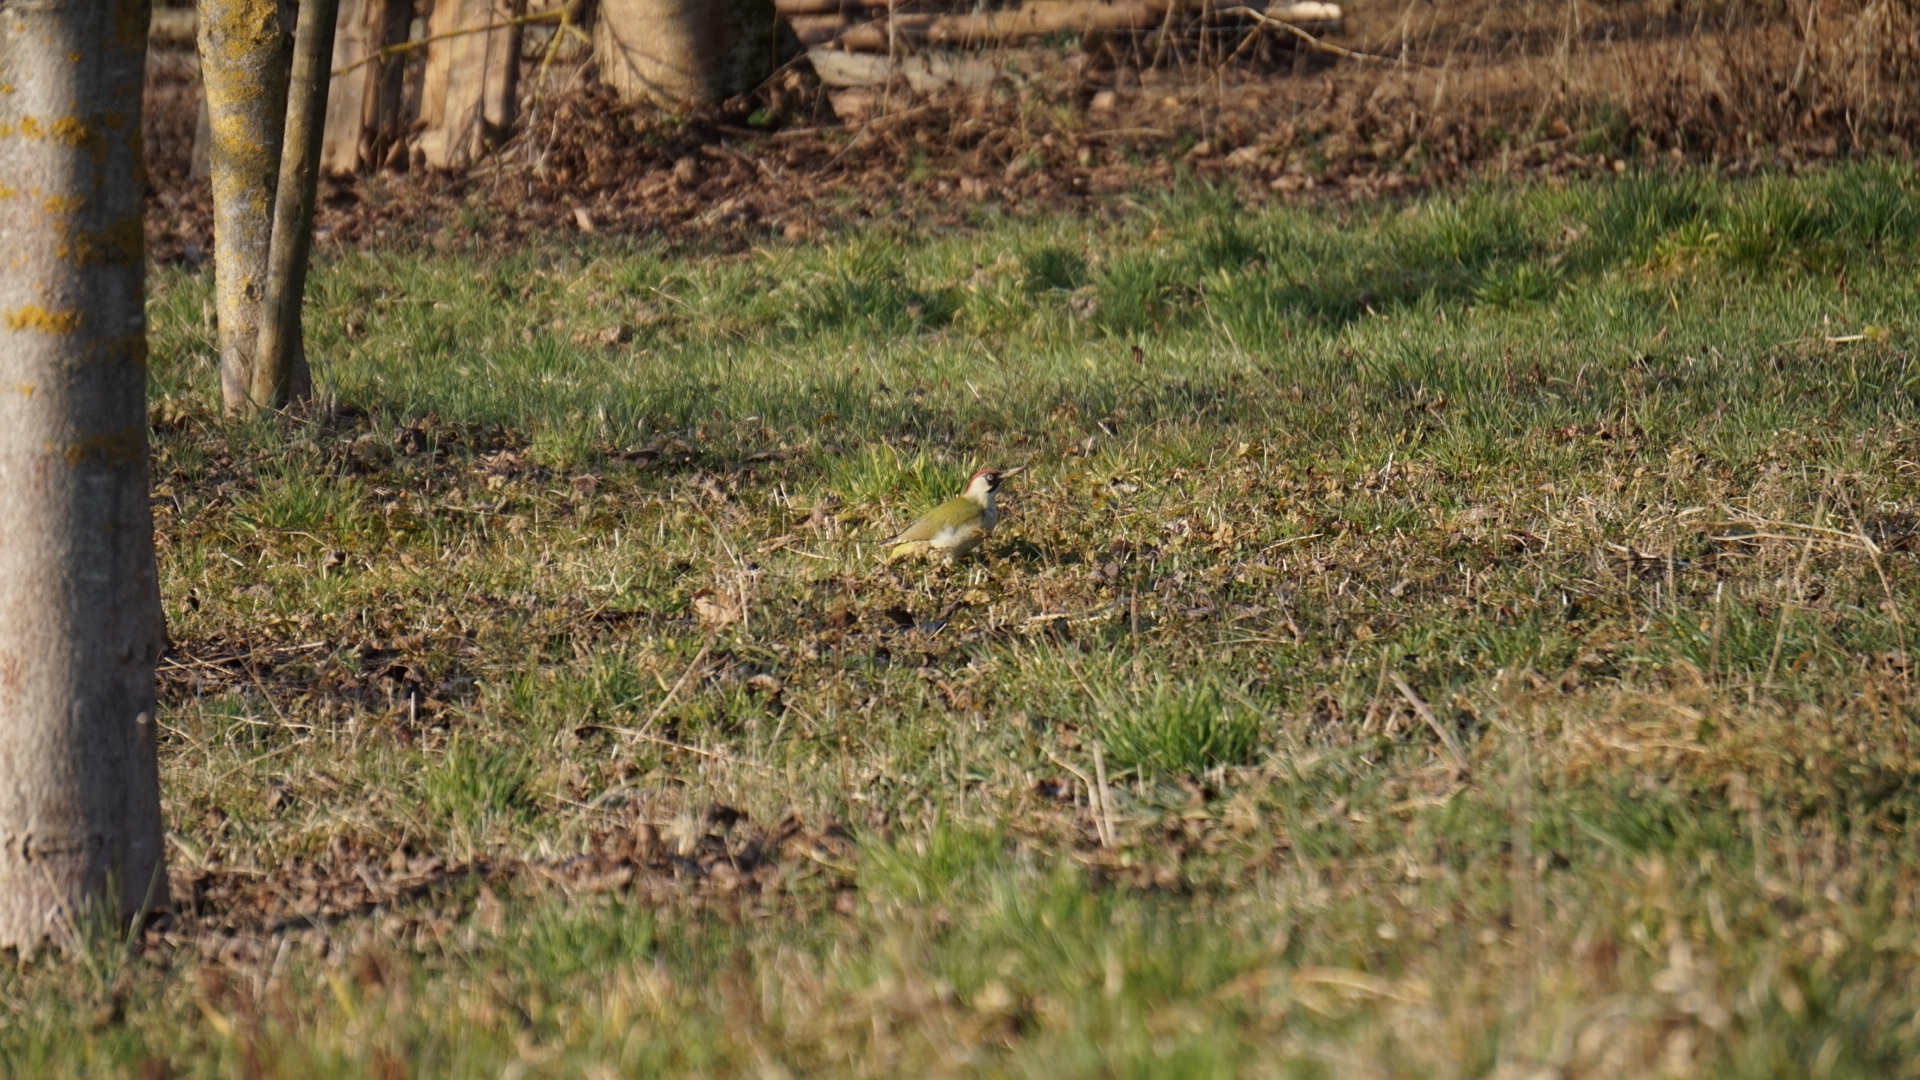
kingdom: Animalia
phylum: Chordata
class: Aves
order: Piciformes
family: Picidae
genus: Picus
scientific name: Picus viridis
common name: European green woodpecker
